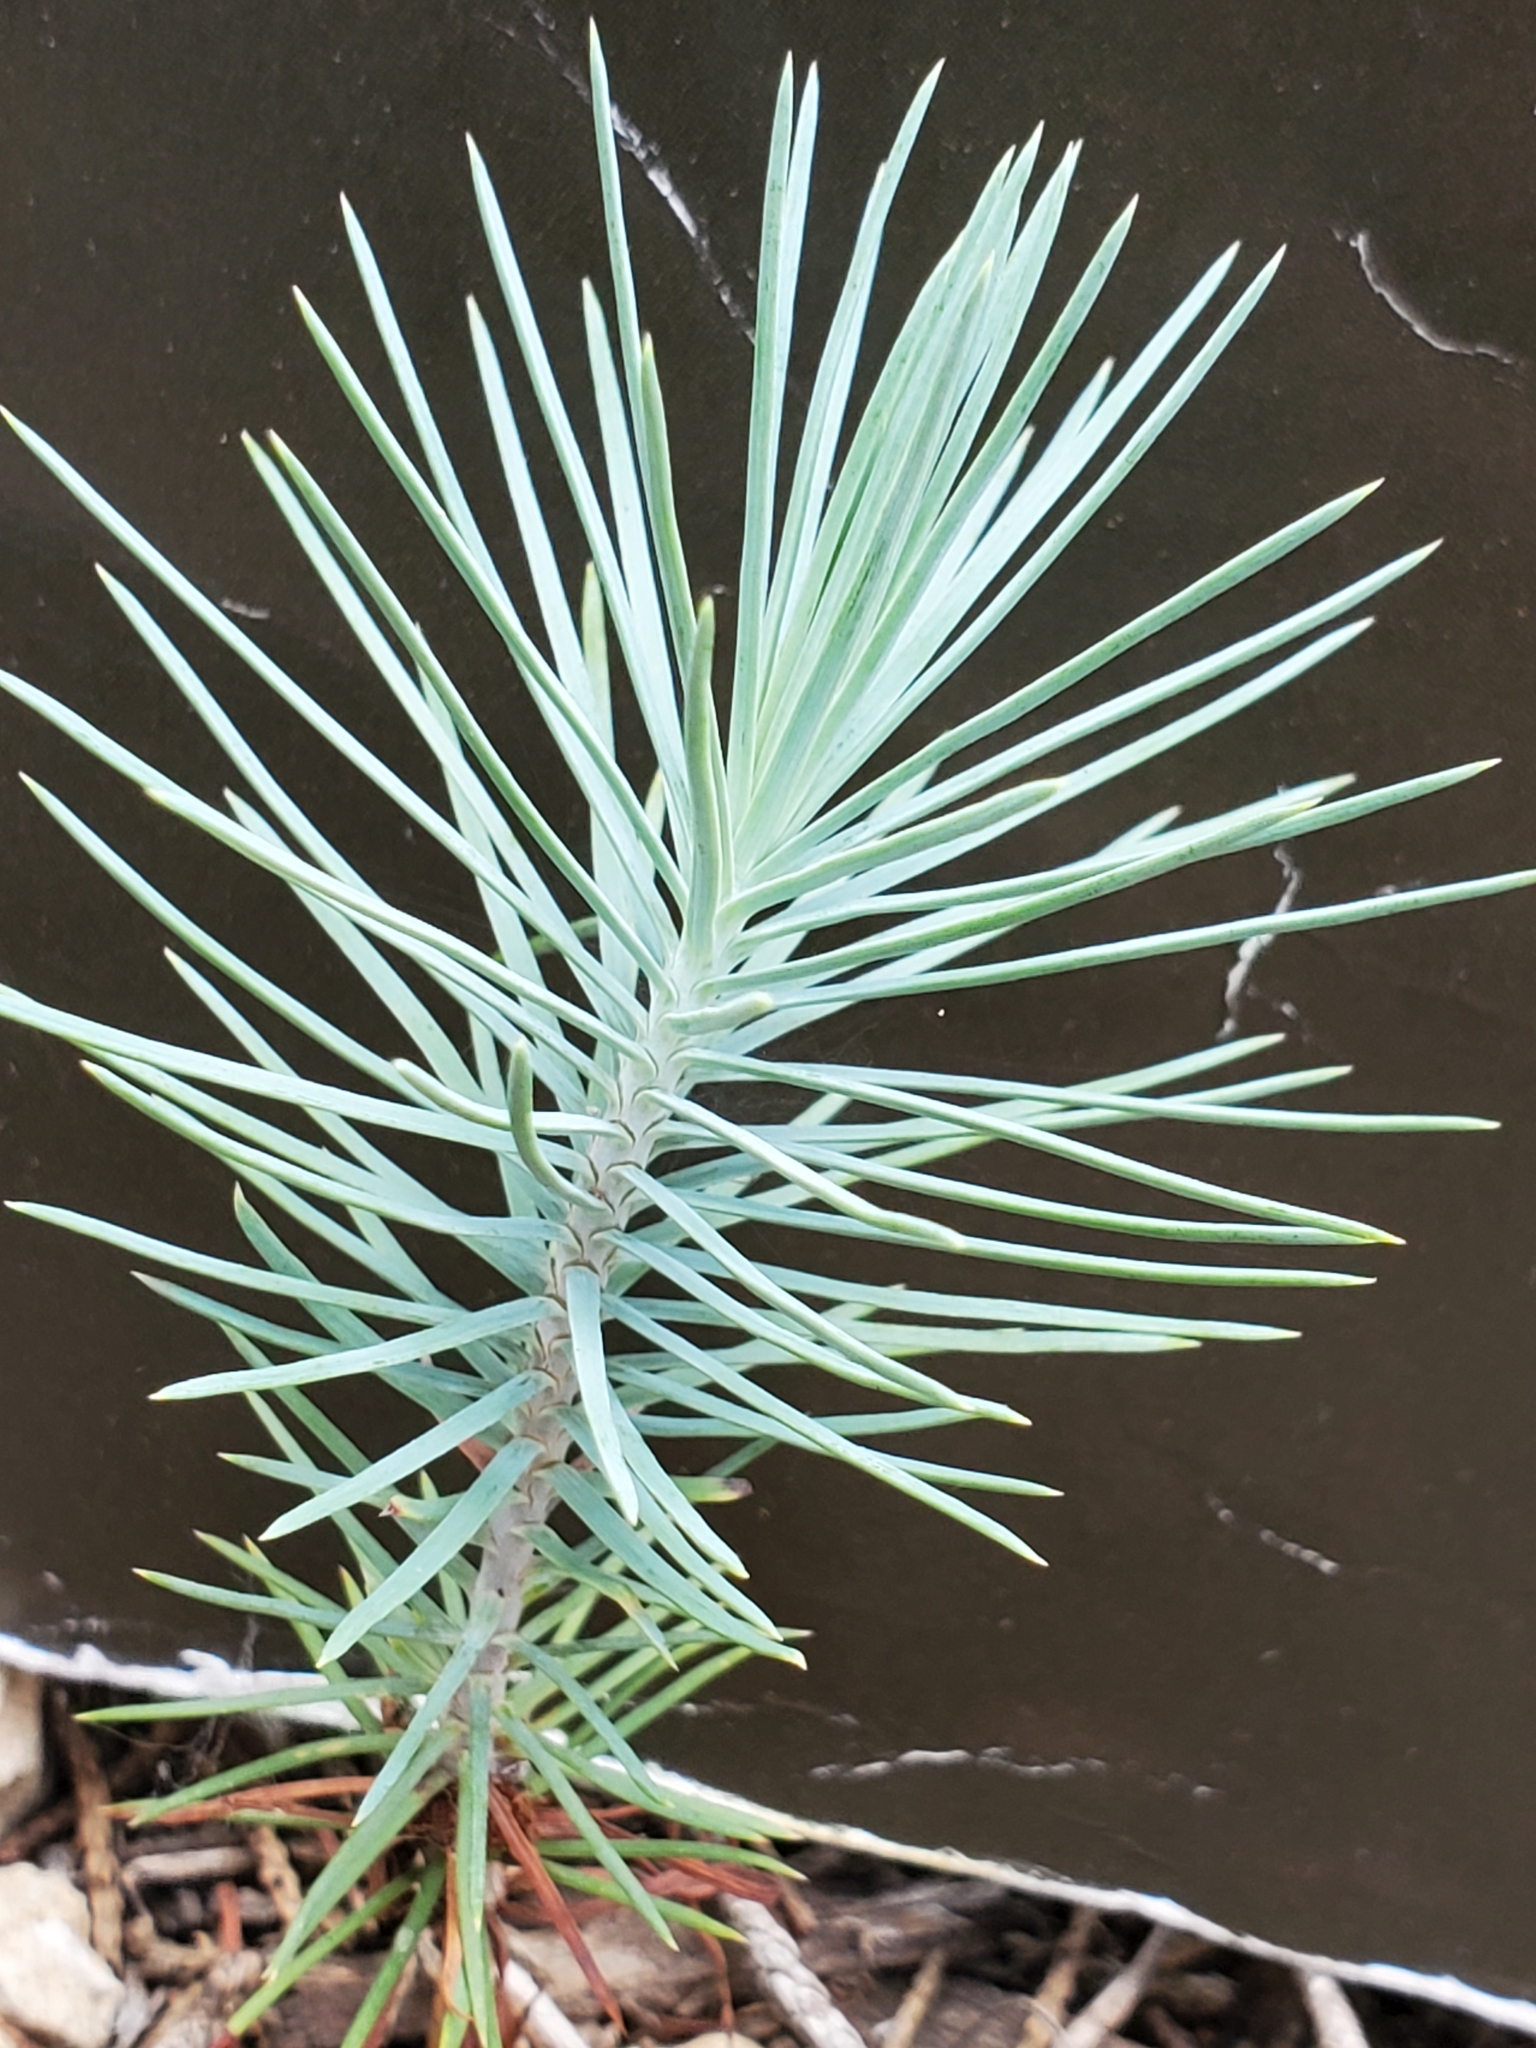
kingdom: Plantae
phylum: Tracheophyta
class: Pinopsida
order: Pinales
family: Pinaceae
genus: Pinus
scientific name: Pinus remota
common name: Nut pine
